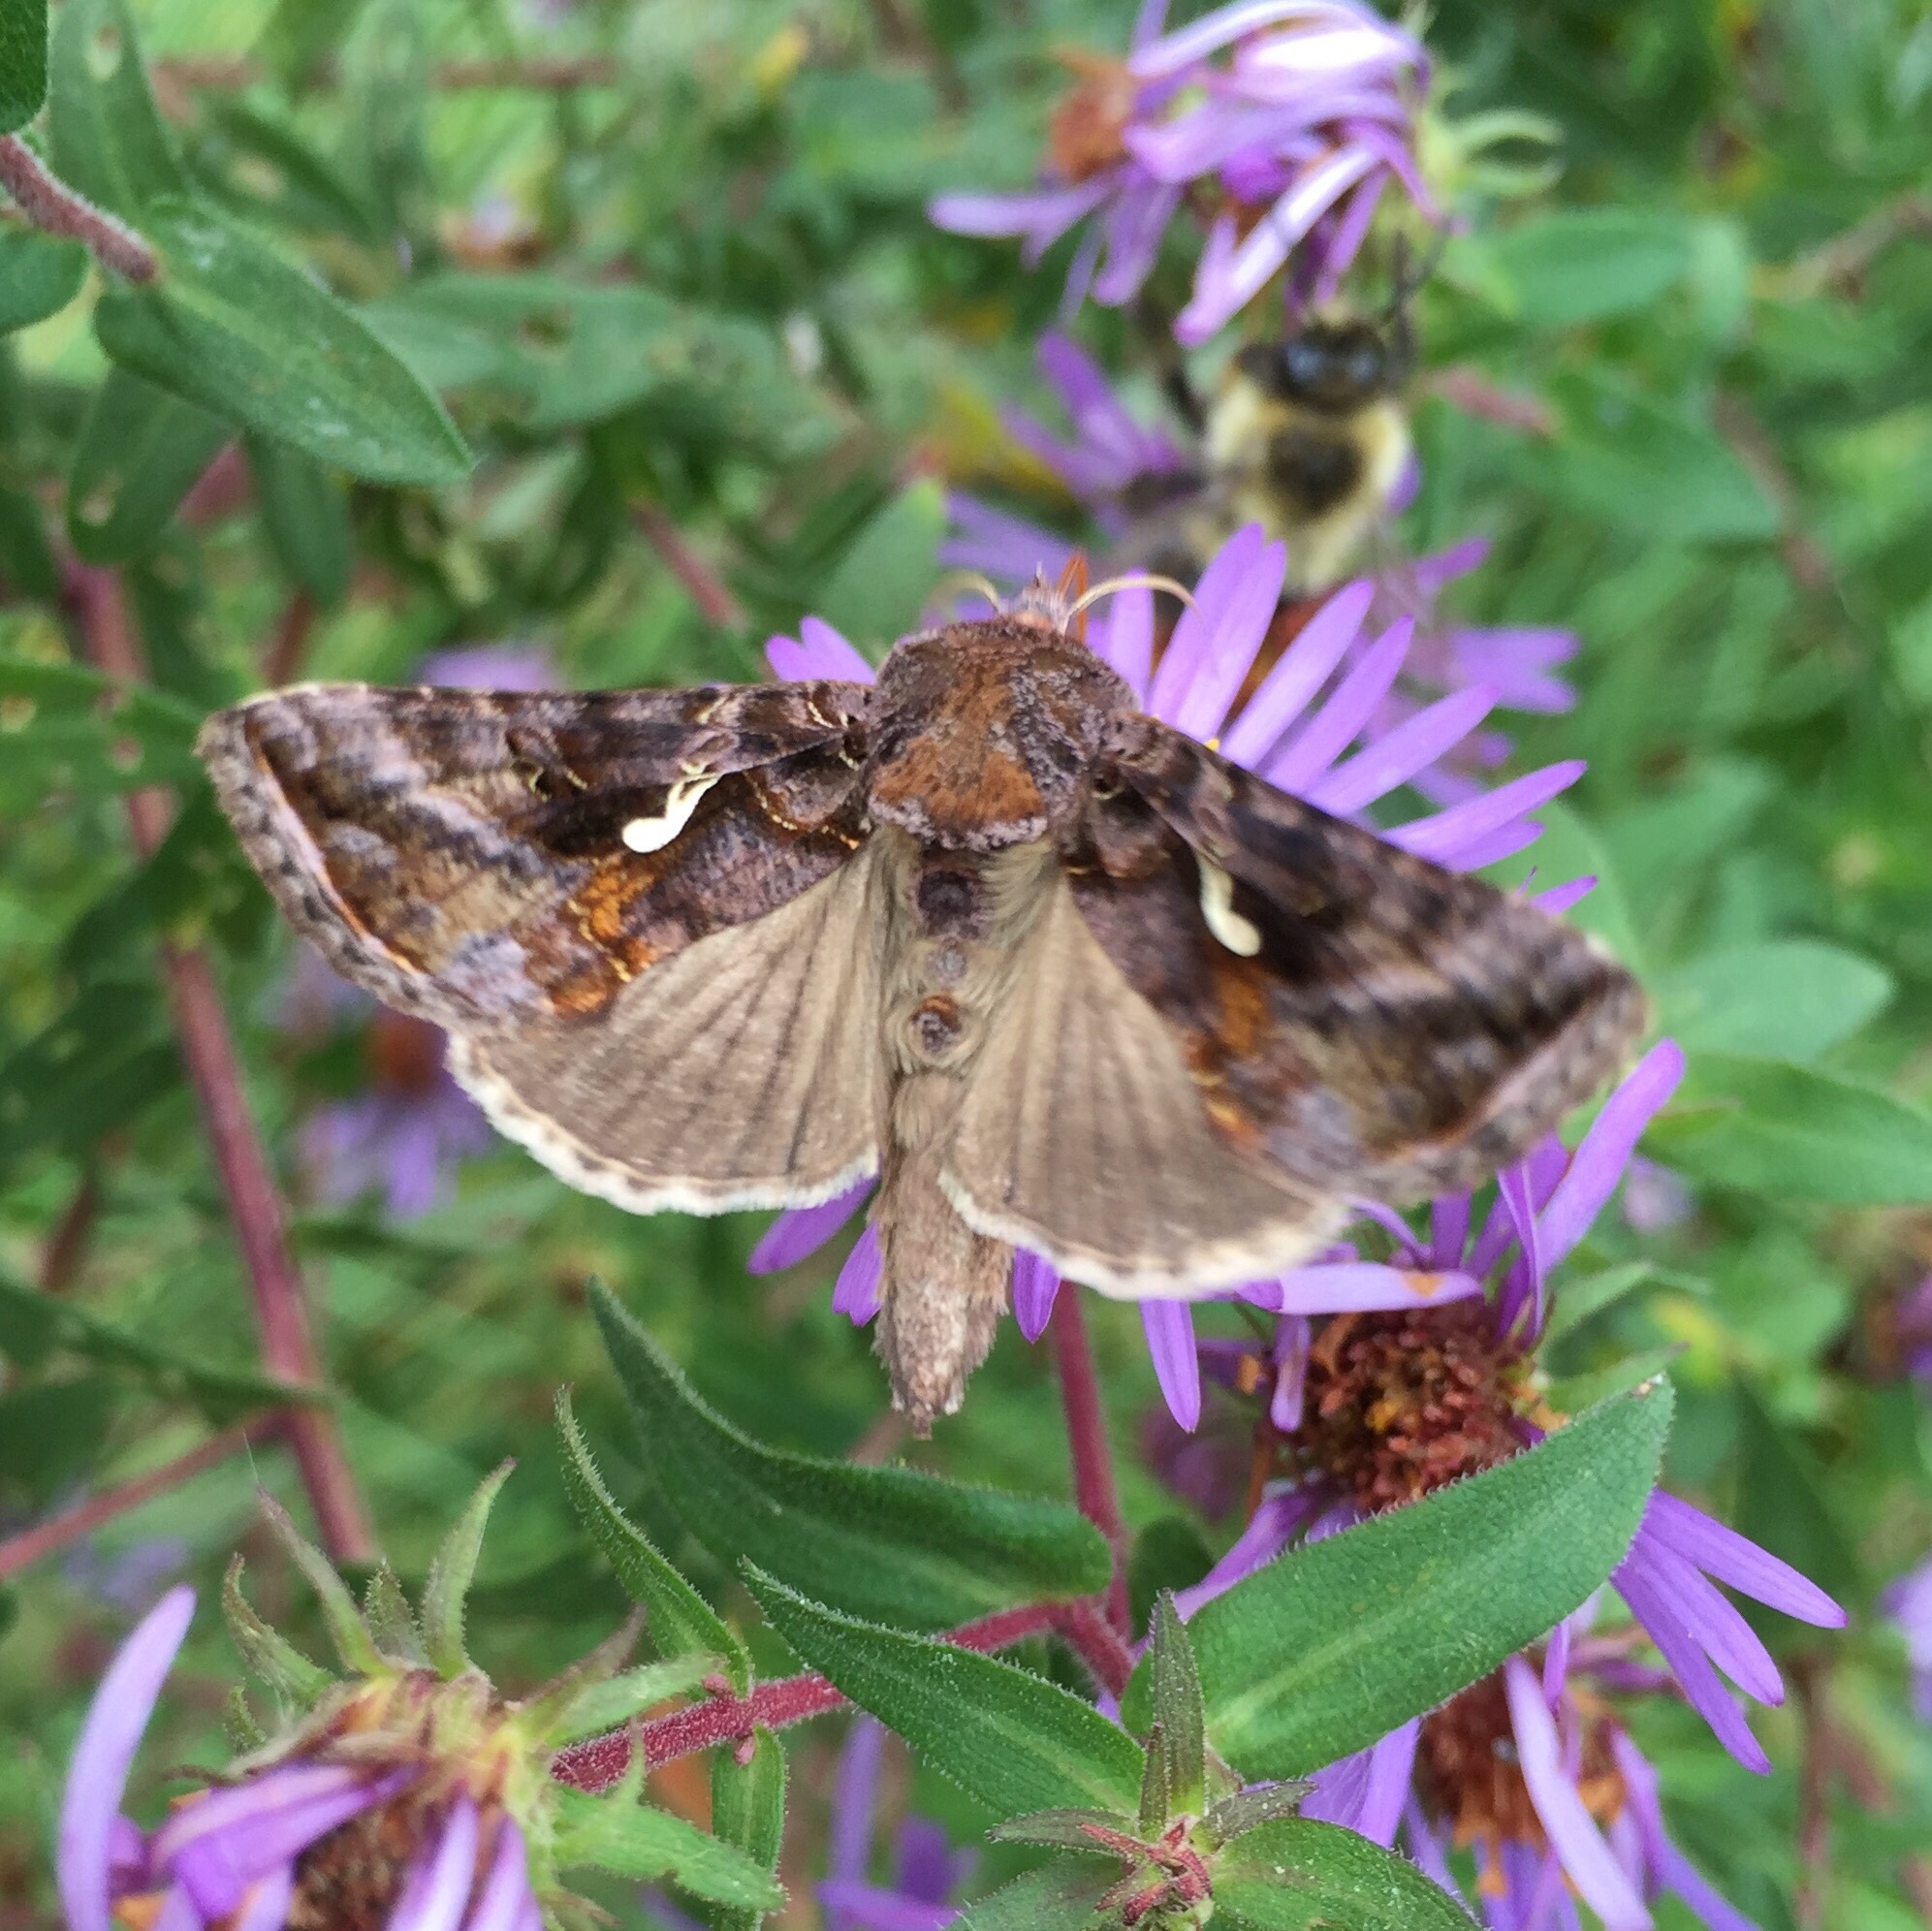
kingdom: Animalia
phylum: Arthropoda
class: Insecta
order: Lepidoptera
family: Noctuidae
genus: Autographa
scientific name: Autographa precationis
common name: Common looper moth
